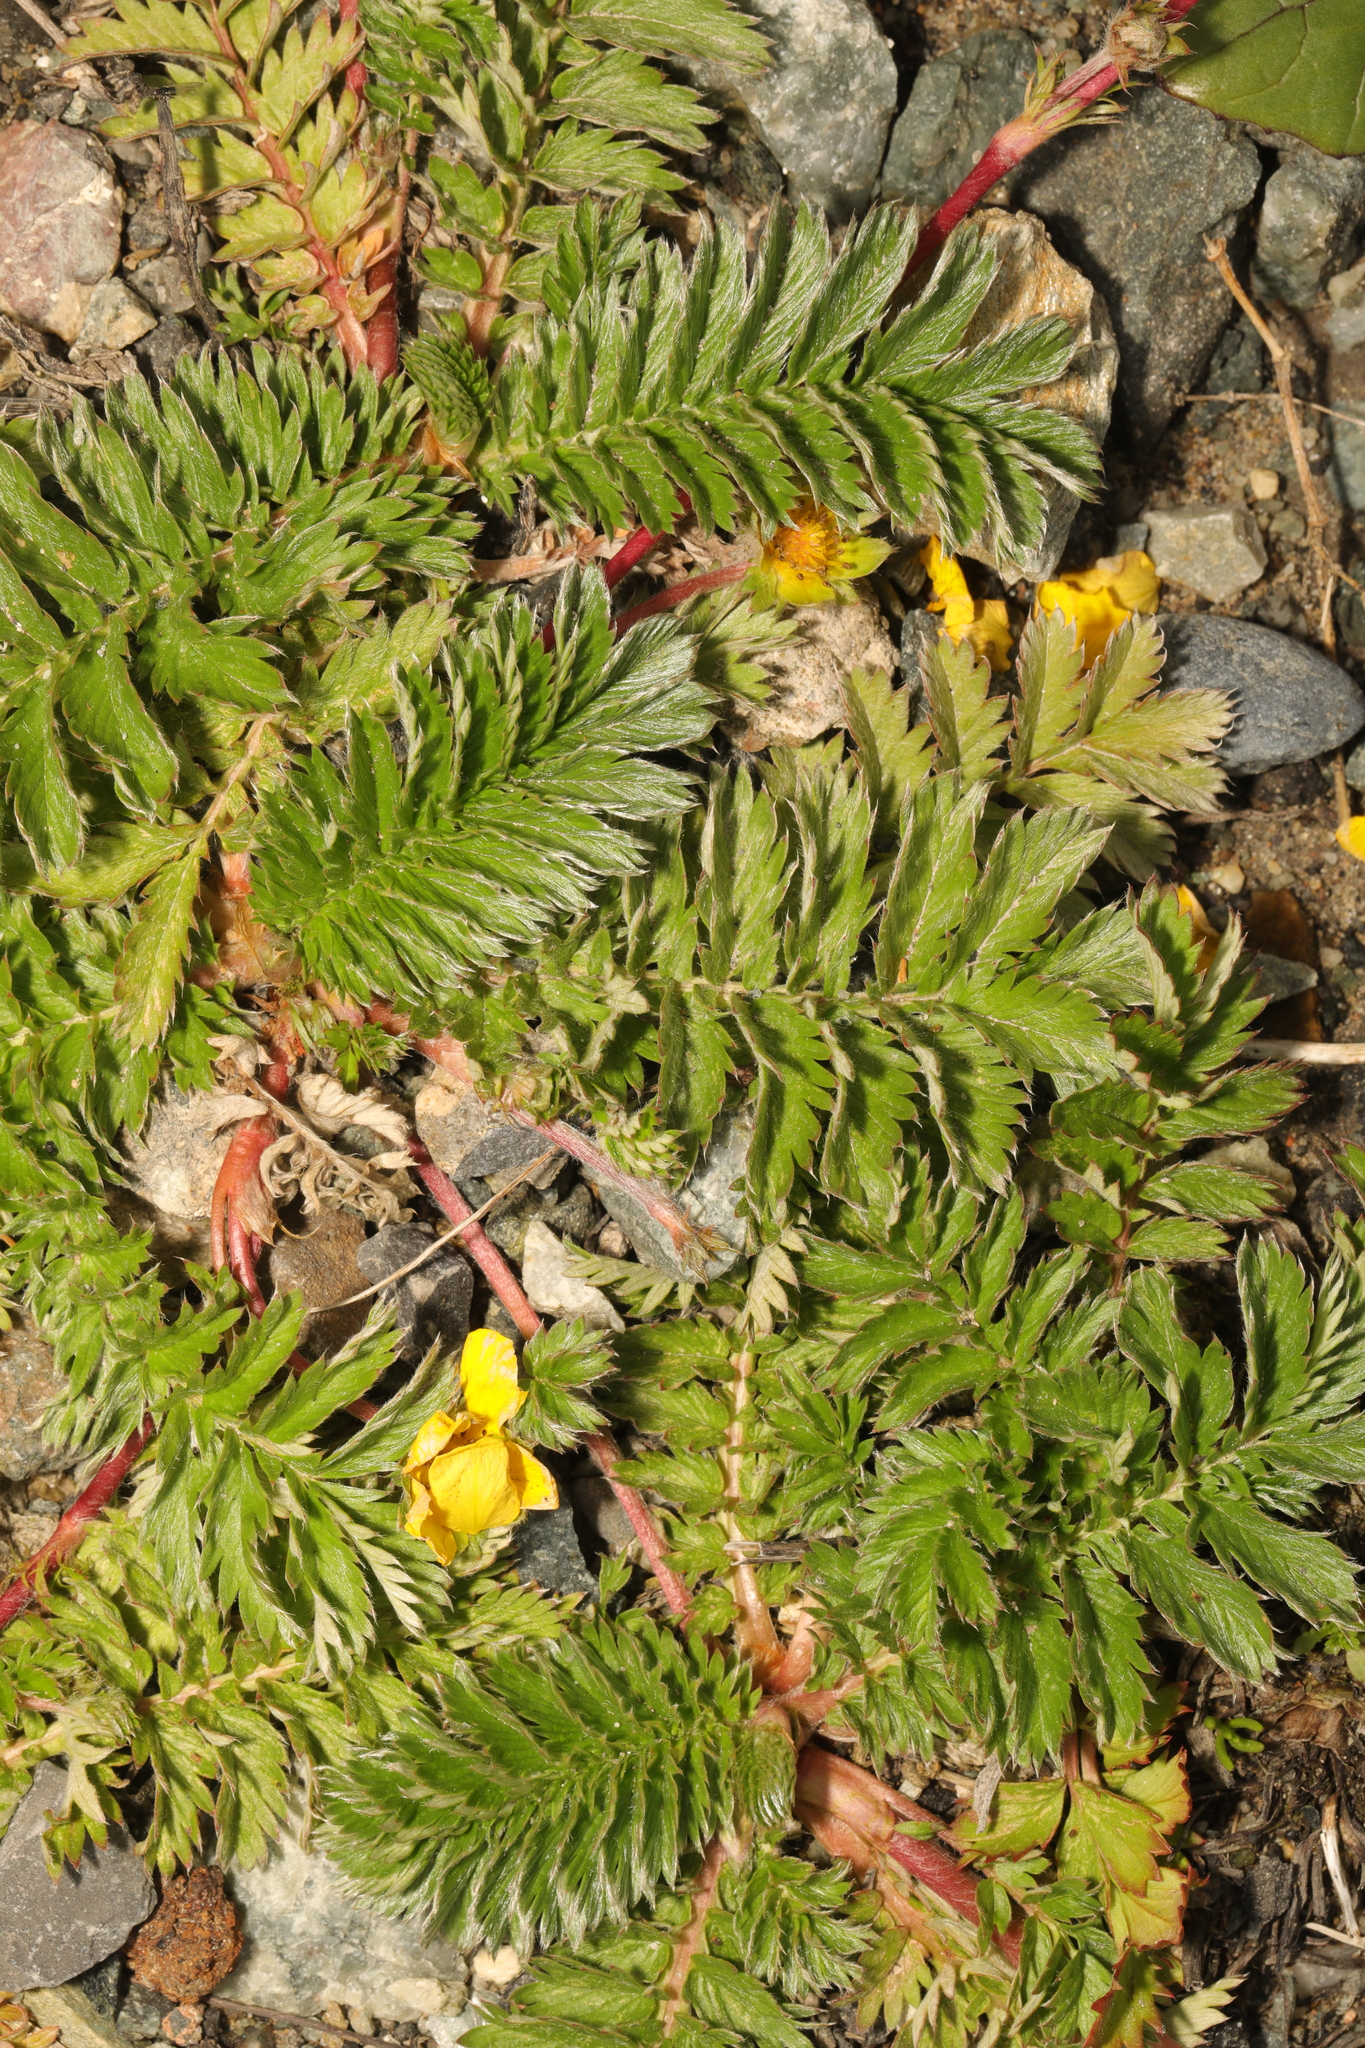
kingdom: Plantae
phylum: Tracheophyta
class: Magnoliopsida
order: Rosales
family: Rosaceae
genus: Argentina
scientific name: Argentina anserina
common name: Common silverweed
